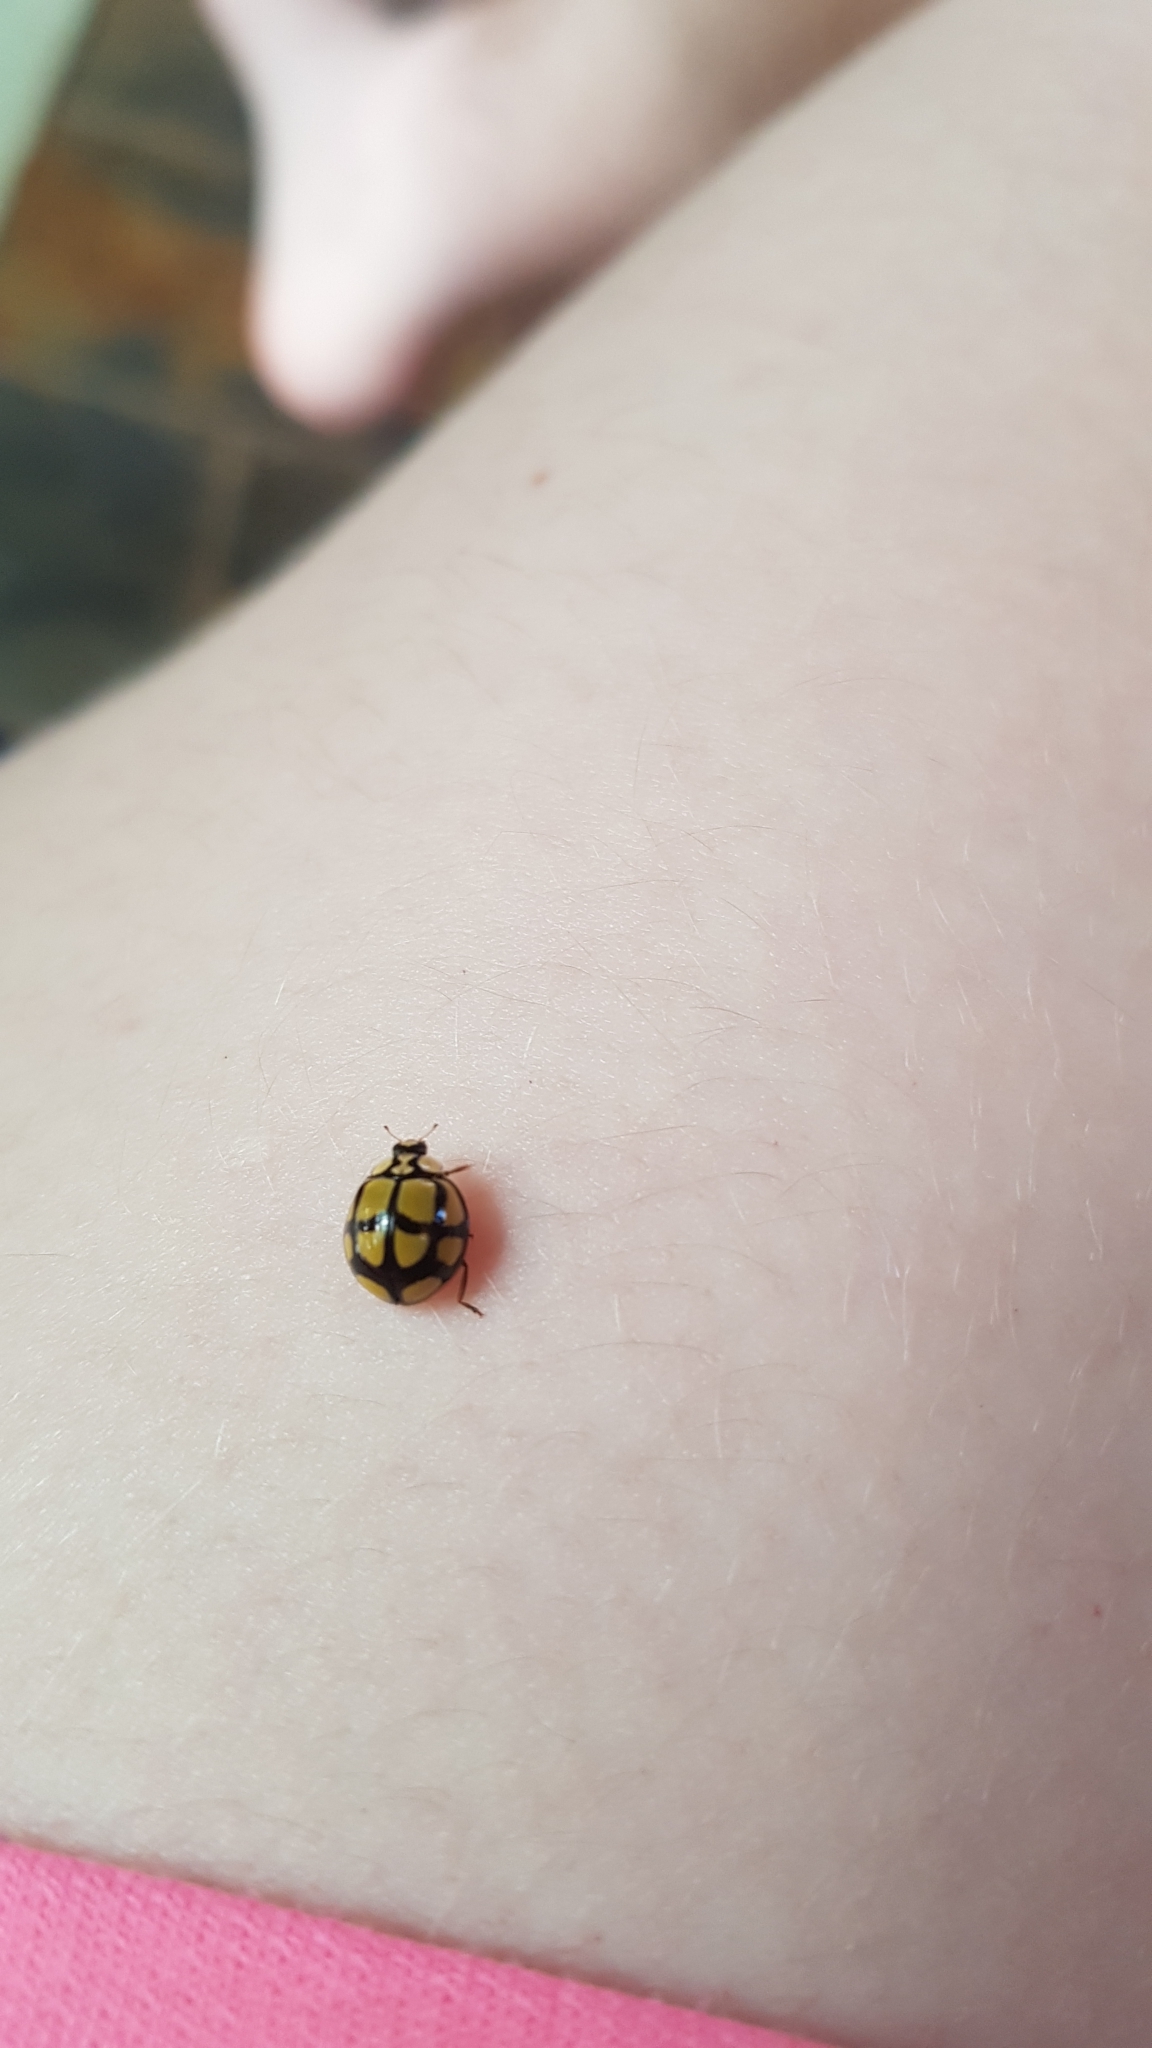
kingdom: Animalia
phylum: Arthropoda
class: Insecta
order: Coleoptera
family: Coccinellidae
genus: Harmonia
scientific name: Harmonia
